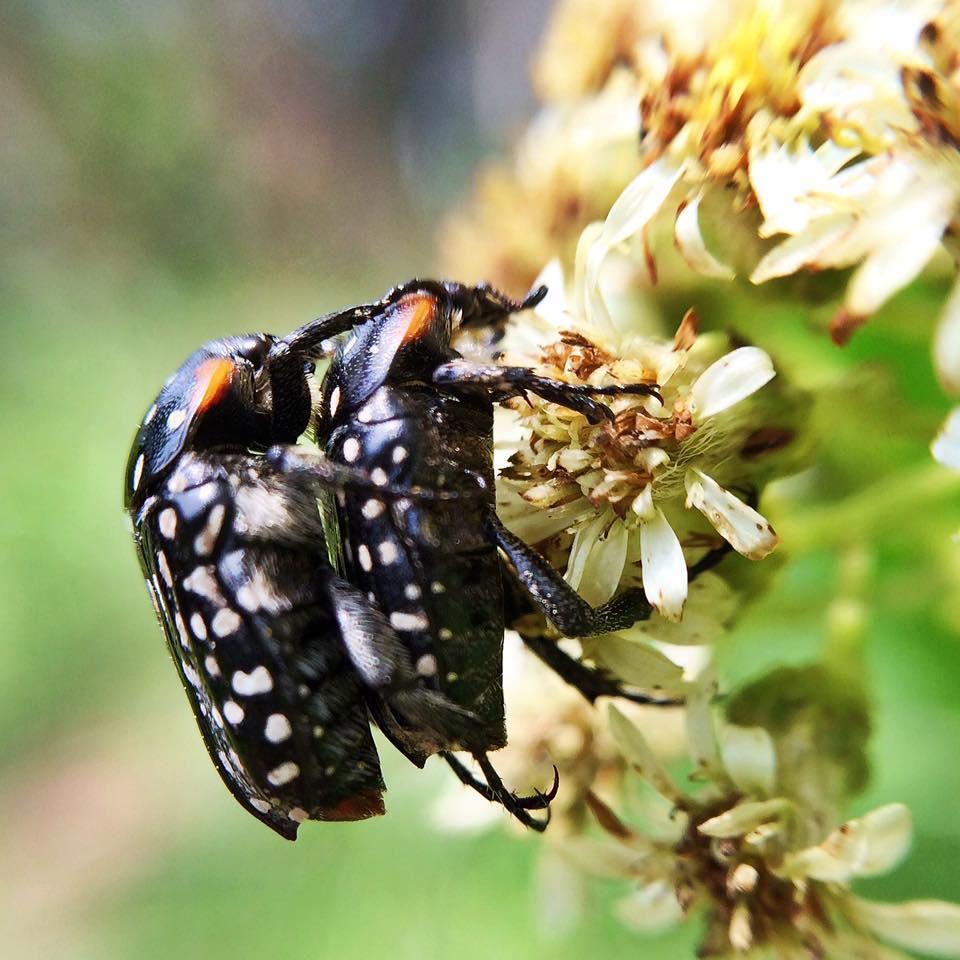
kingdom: Animalia
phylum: Arthropoda
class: Insecta
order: Coleoptera
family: Scarabaeidae
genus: Oxythyrea
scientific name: Oxythyrea
